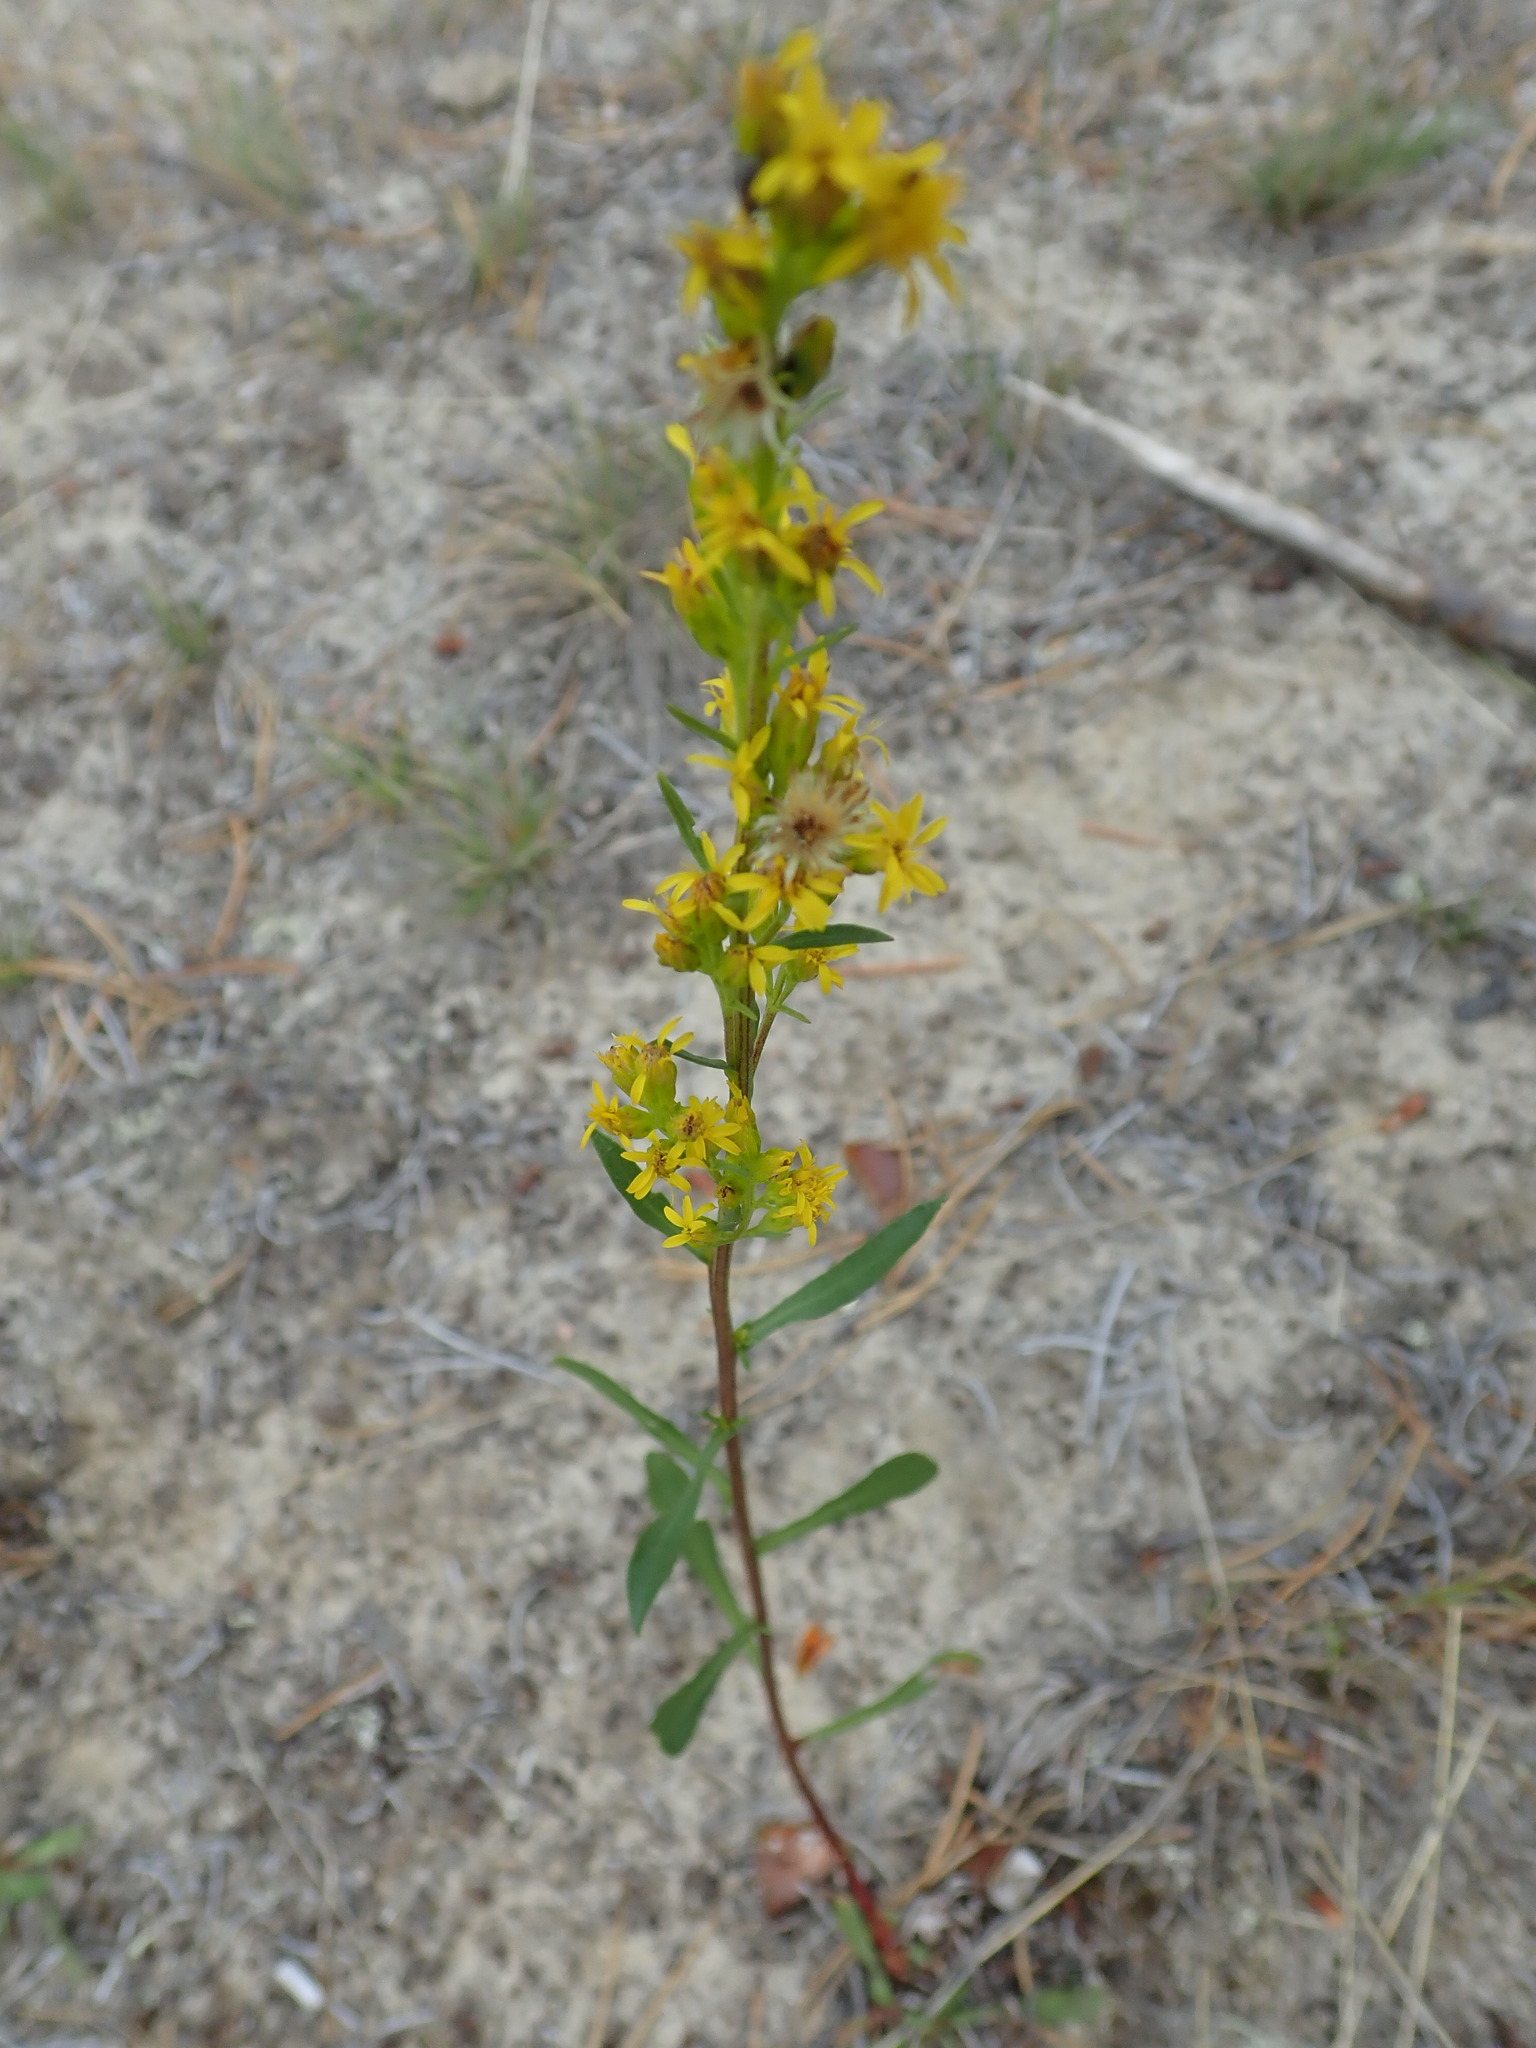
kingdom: Plantae
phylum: Tracheophyta
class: Magnoliopsida
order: Asterales
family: Asteraceae
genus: Solidago
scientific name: Solidago glutinosa
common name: Decumbent goldenrod
